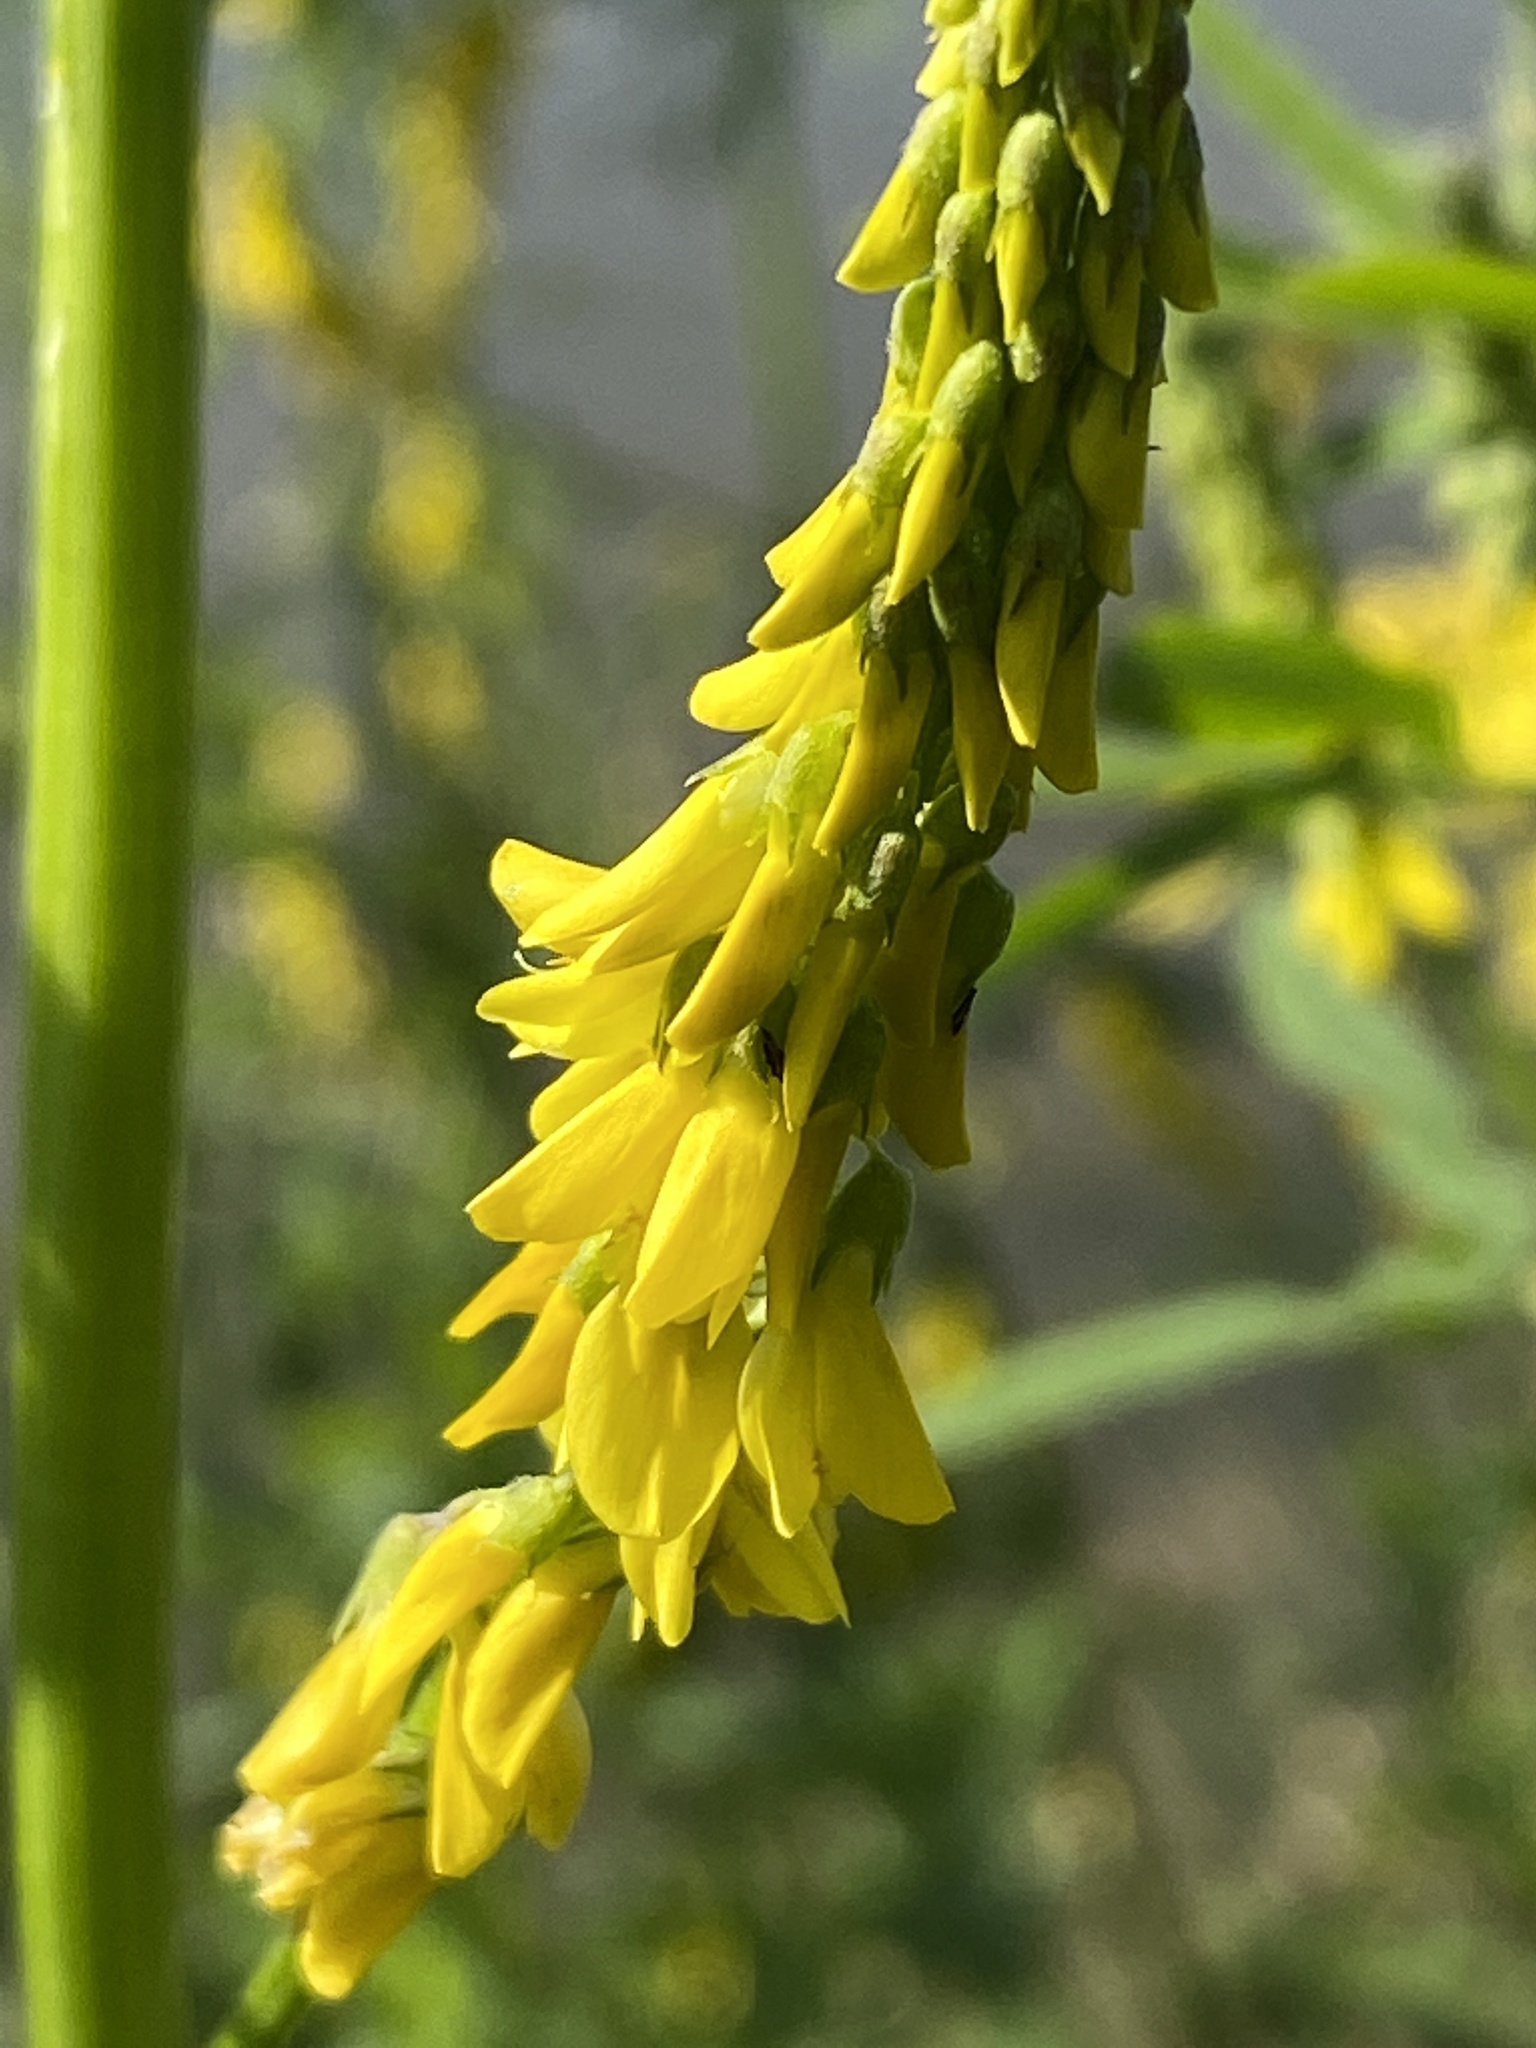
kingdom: Plantae
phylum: Tracheophyta
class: Magnoliopsida
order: Fabales
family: Fabaceae
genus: Melilotus
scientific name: Melilotus officinalis
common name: Sweetclover
